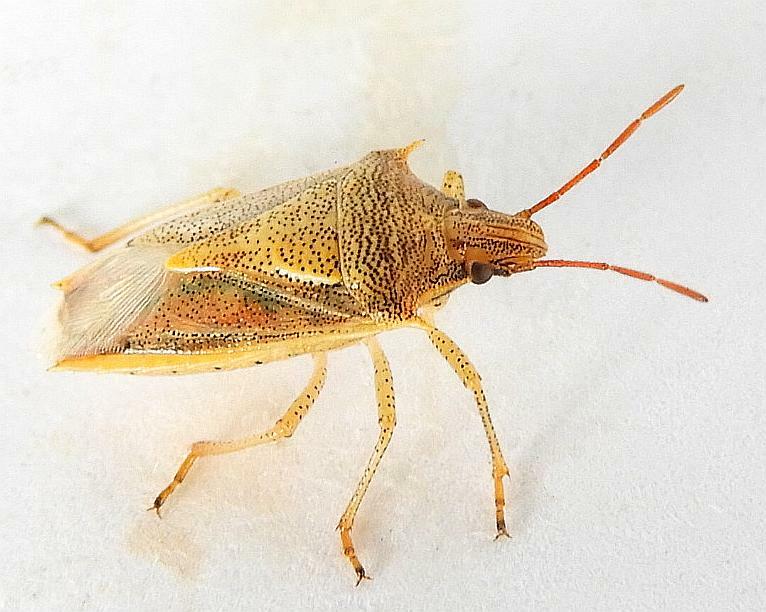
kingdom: Animalia
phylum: Arthropoda
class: Insecta
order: Hemiptera
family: Pentatomidae
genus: Oebalus
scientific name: Oebalus pugnax
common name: Rice stink bug
